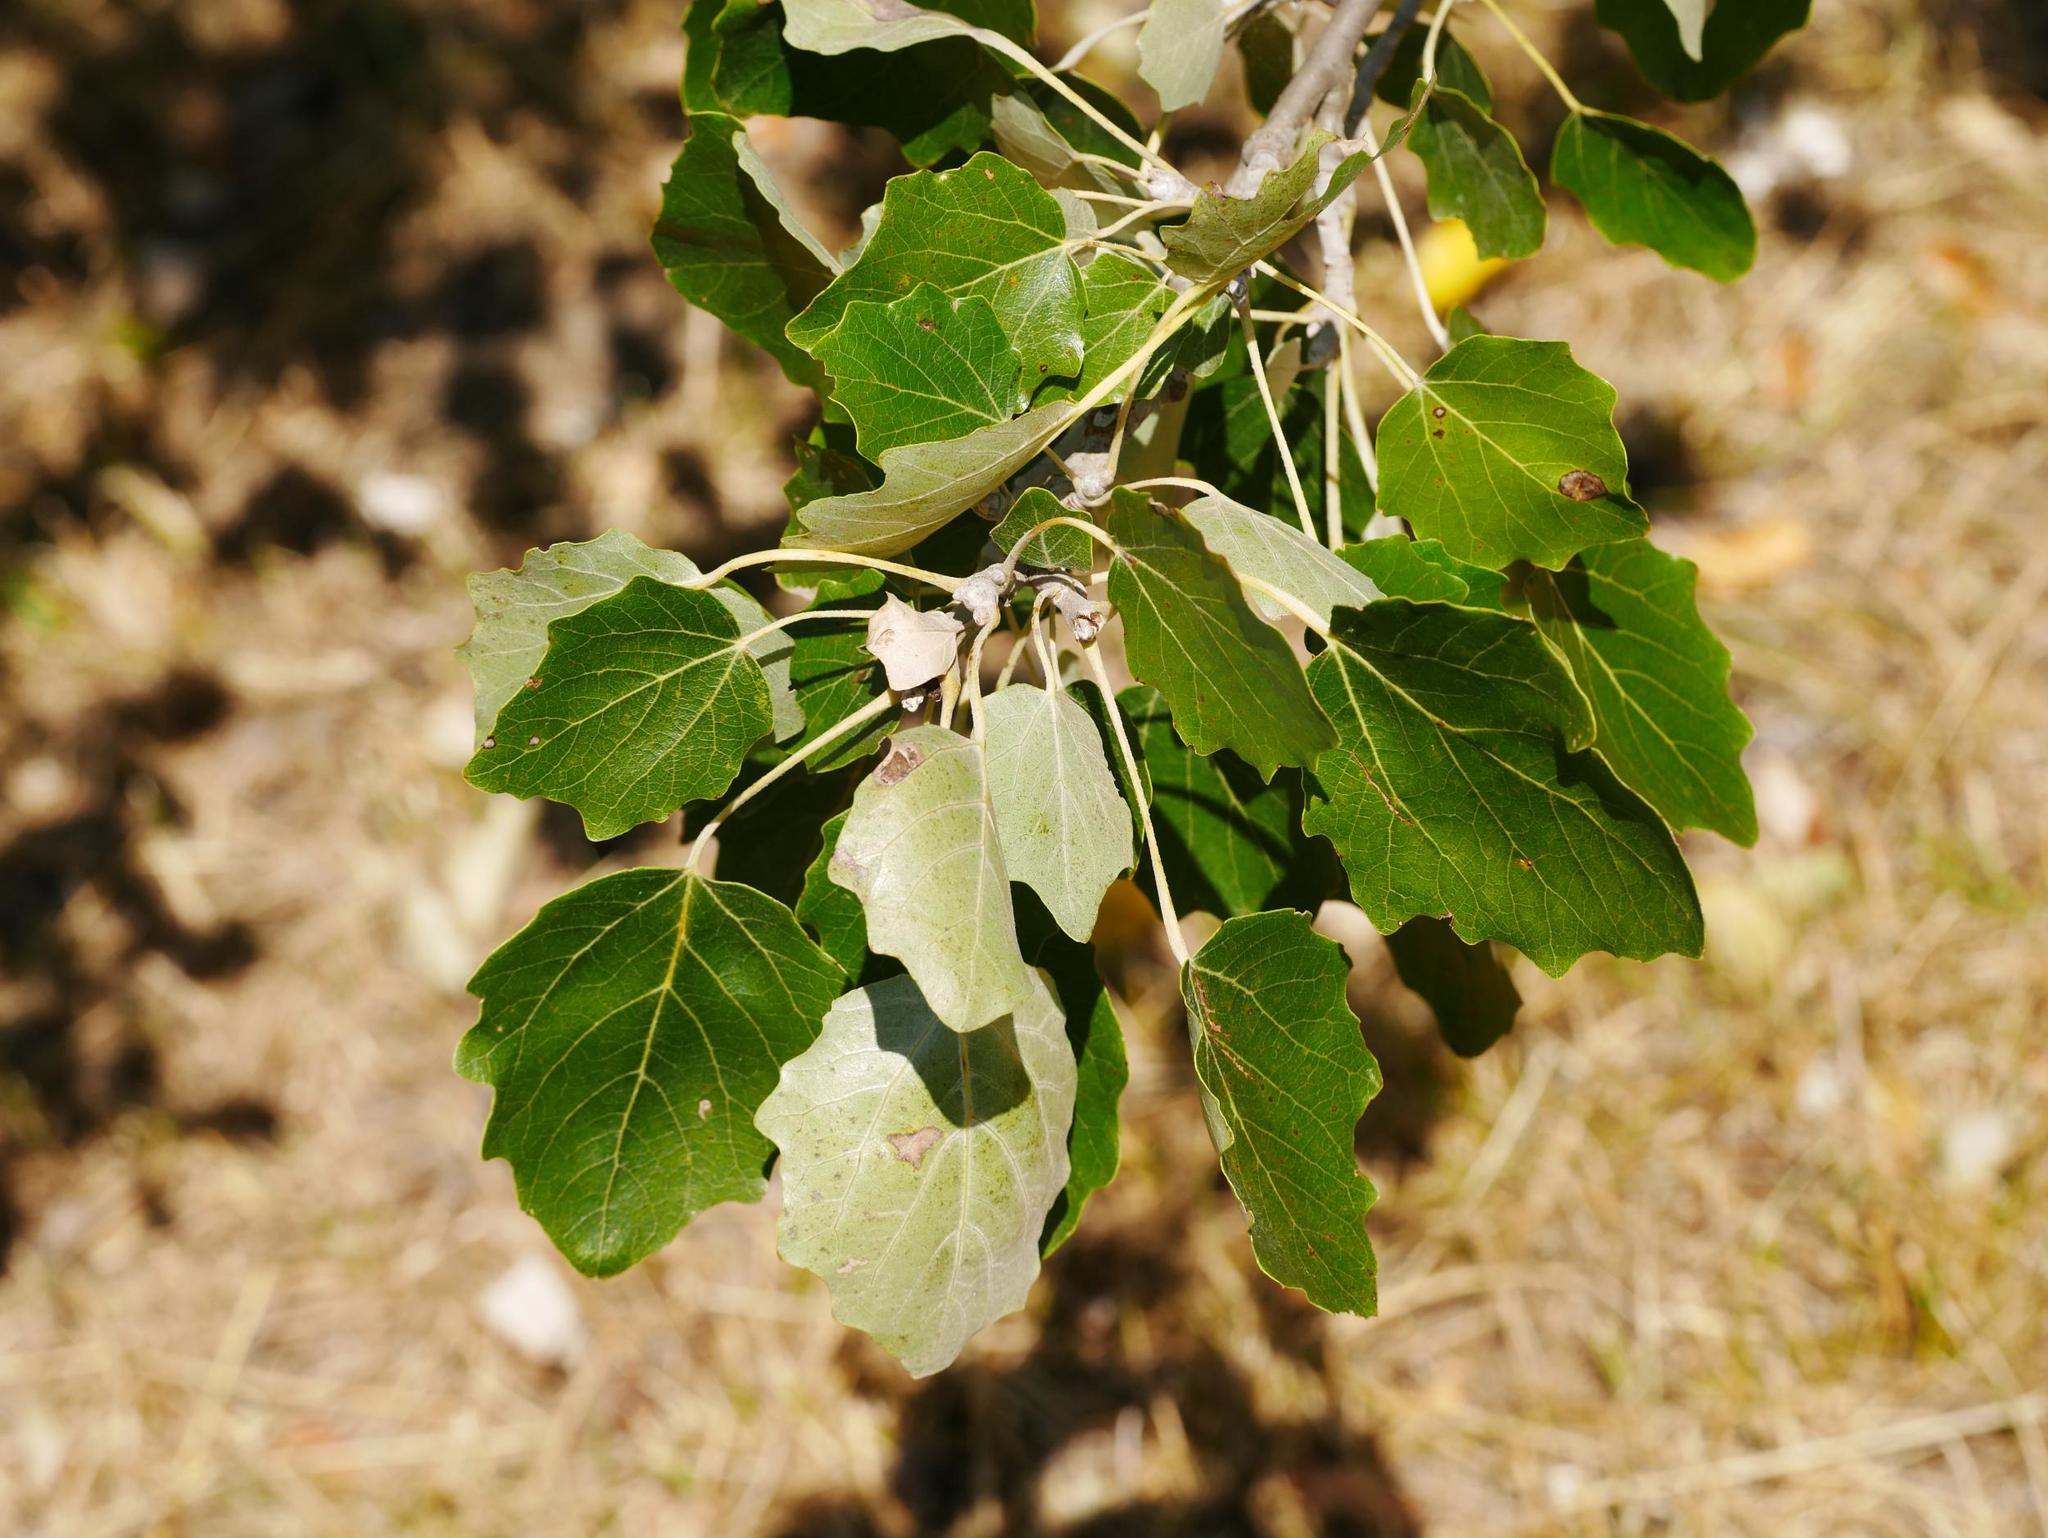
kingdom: Plantae
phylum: Tracheophyta
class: Magnoliopsida
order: Malpighiales
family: Salicaceae
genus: Populus
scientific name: Populus alba
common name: White poplar
